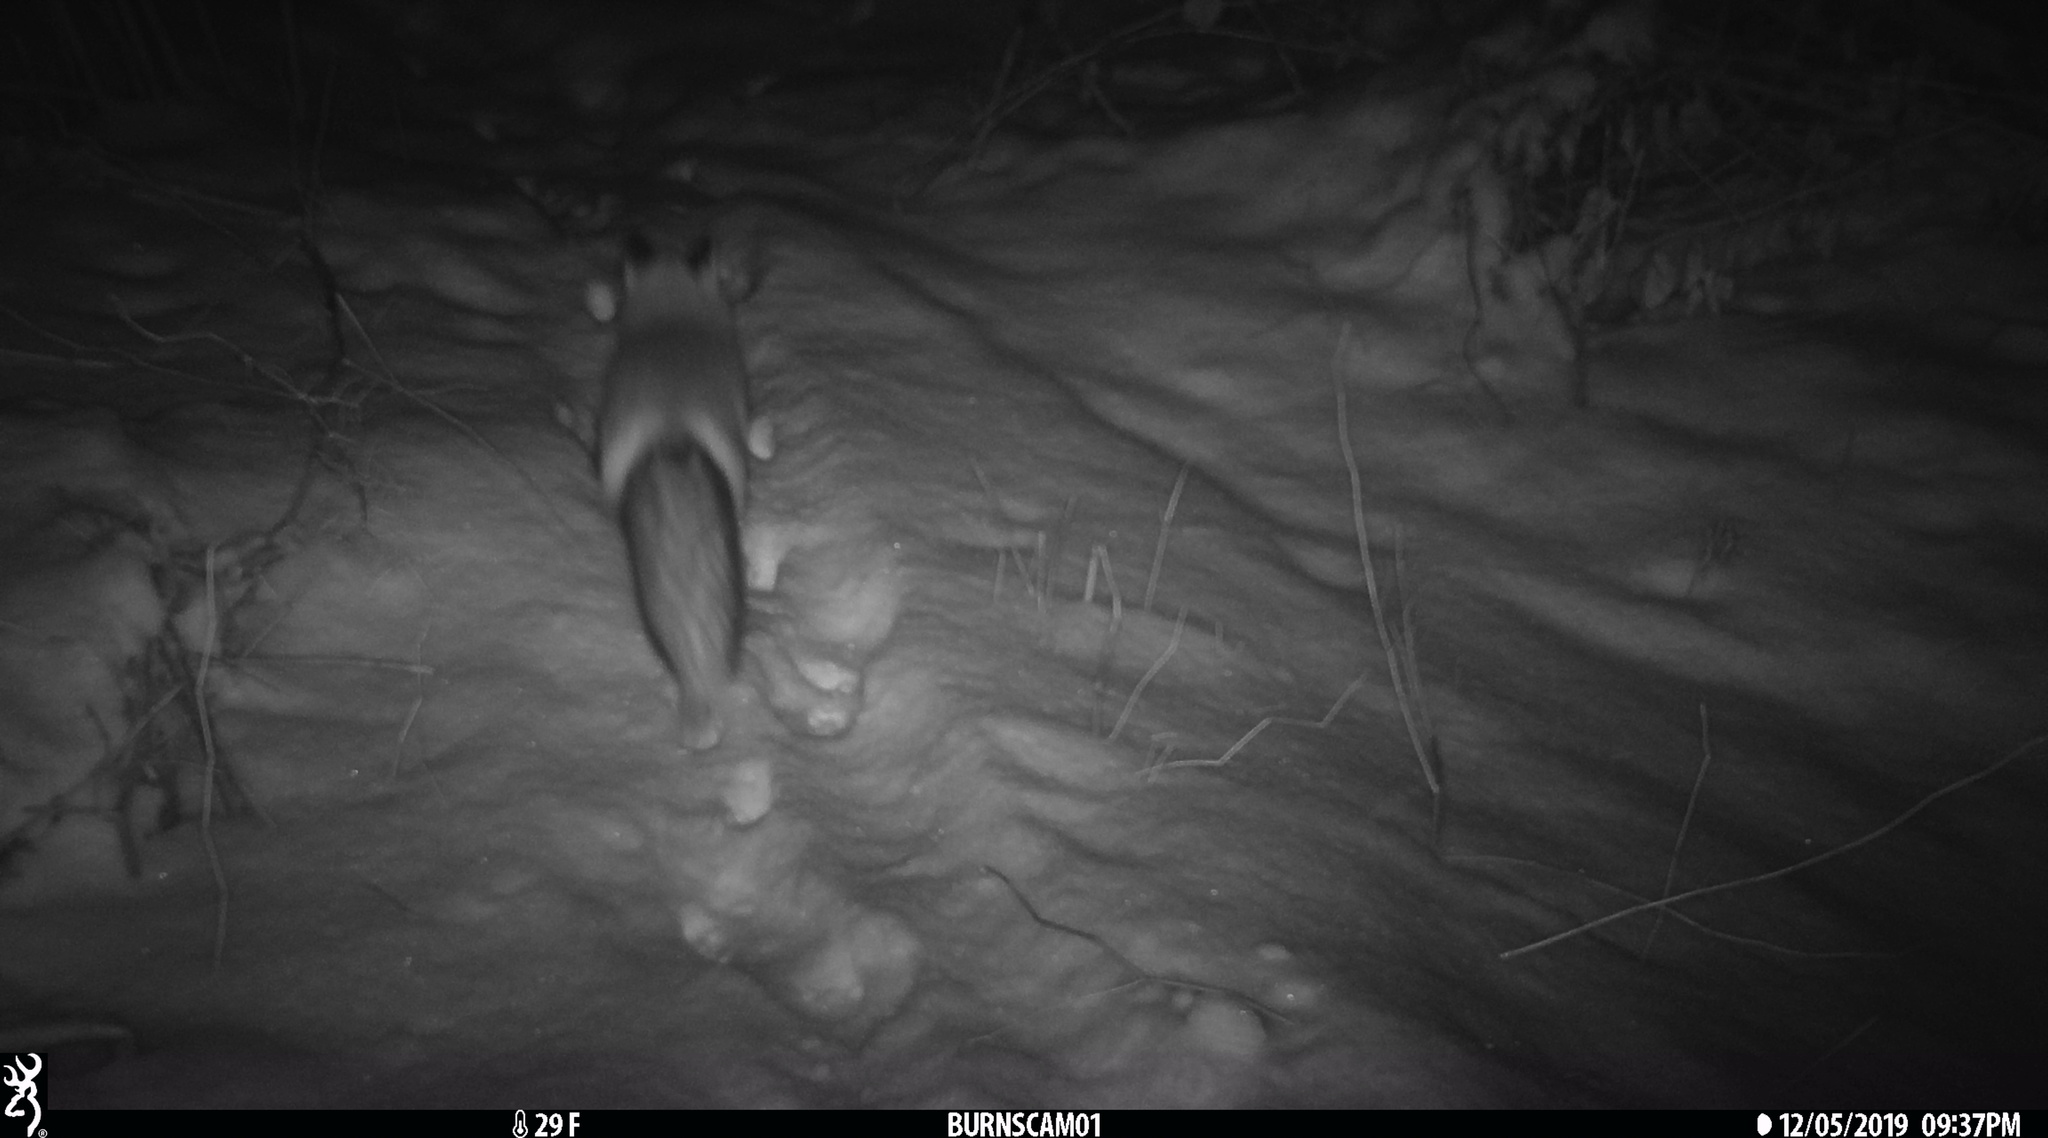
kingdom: Animalia
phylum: Chordata
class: Mammalia
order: Carnivora
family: Canidae
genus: Vulpes
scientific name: Vulpes vulpes
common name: Red fox
